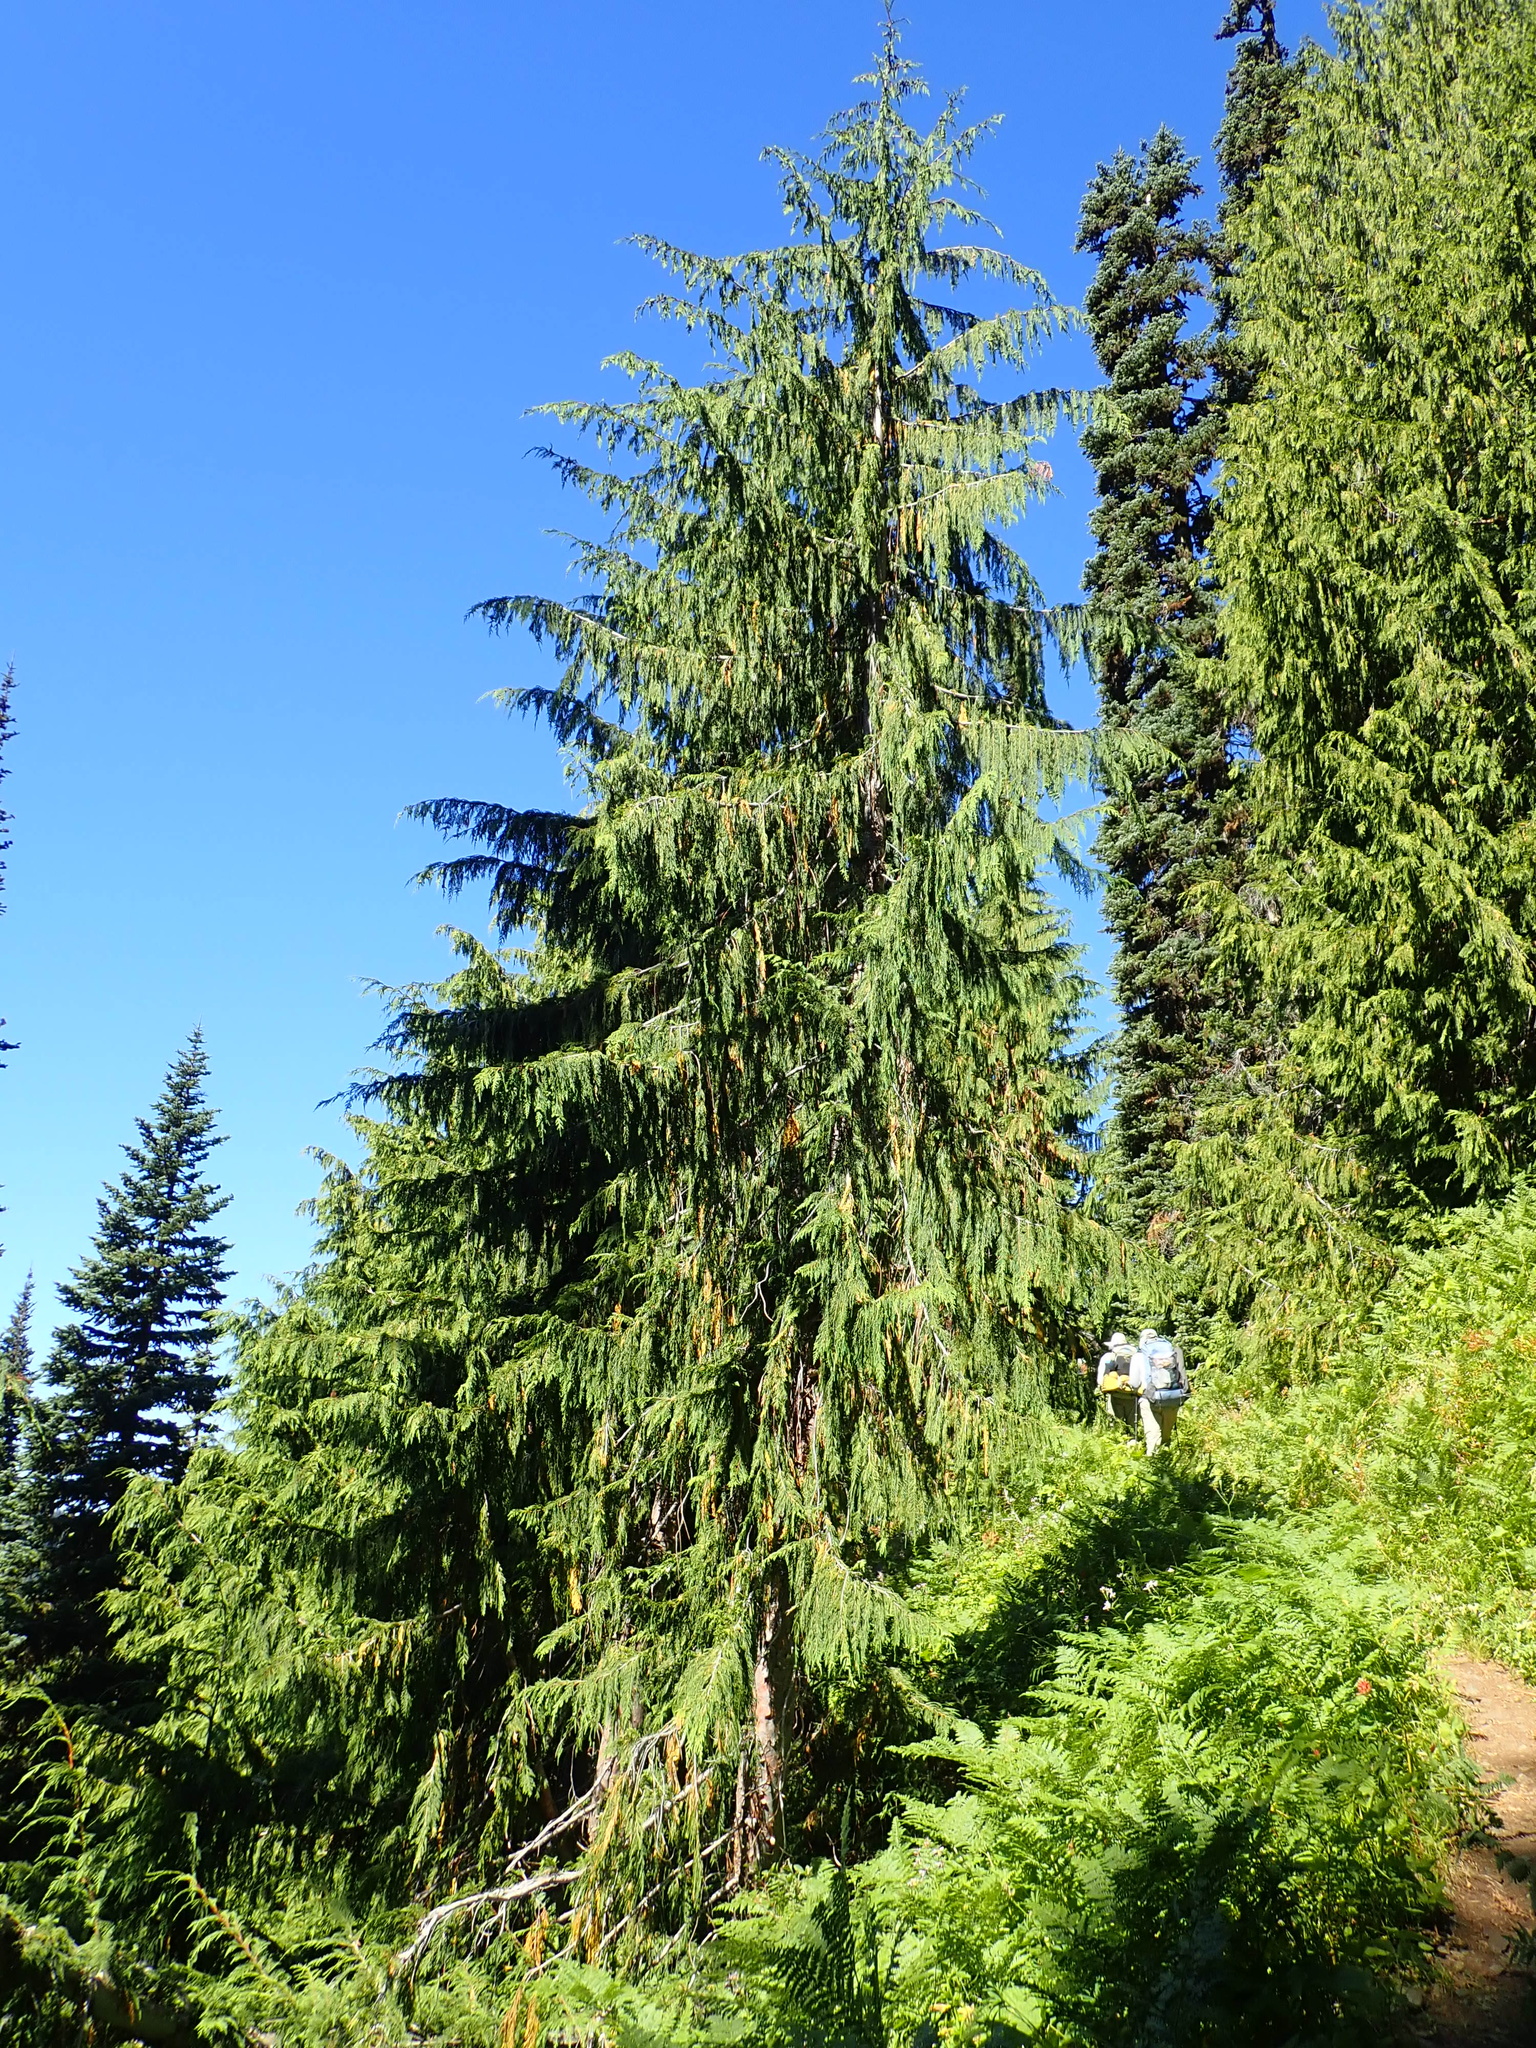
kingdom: Plantae
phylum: Tracheophyta
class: Pinopsida
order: Pinales
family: Cupressaceae
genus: Xanthocyparis
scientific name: Xanthocyparis nootkatensis
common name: Nootka cypress
